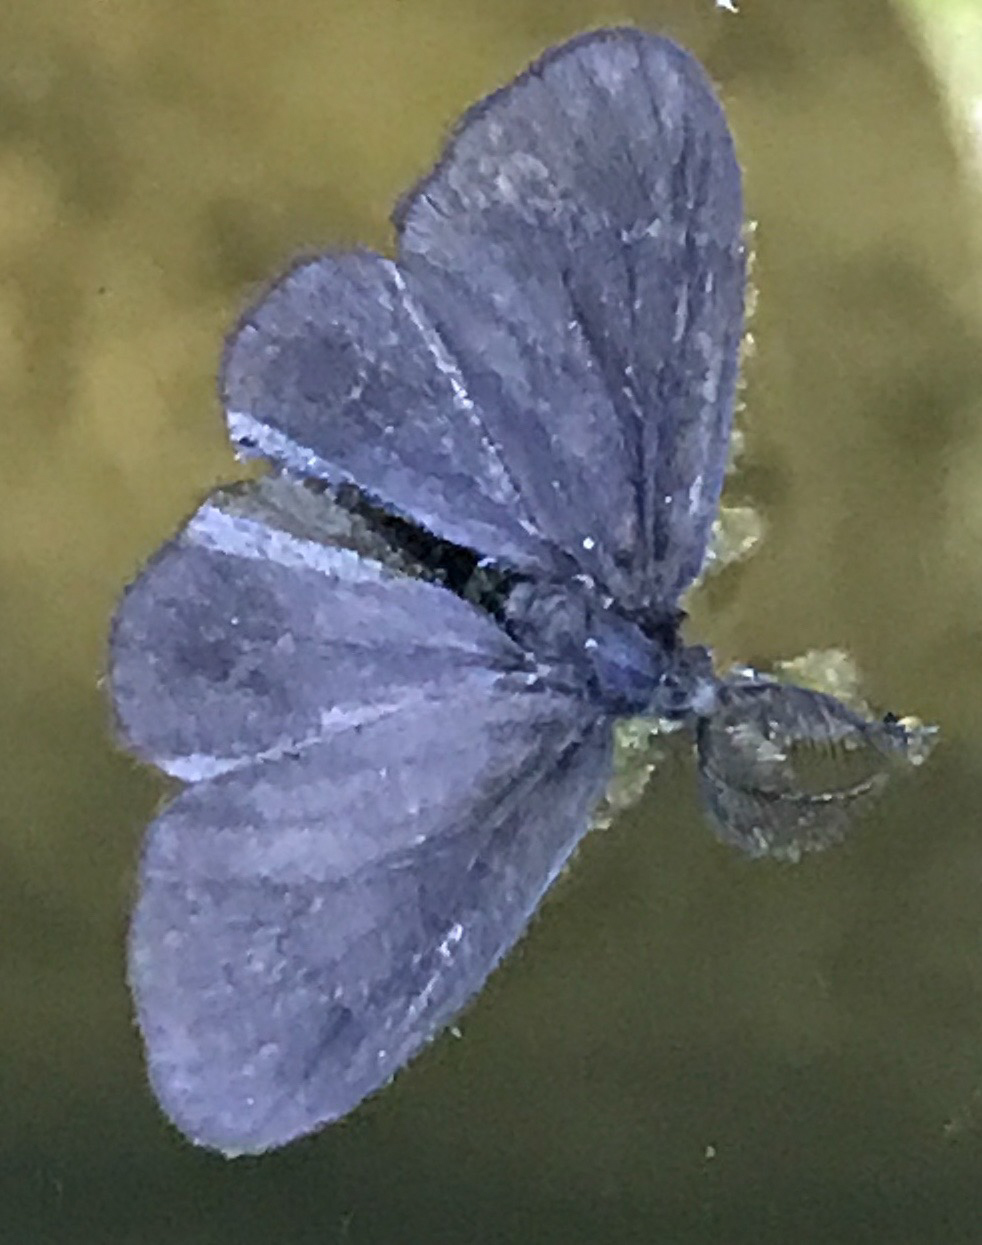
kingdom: Animalia
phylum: Arthropoda
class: Insecta
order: Lepidoptera
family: Psychidae
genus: Cryptothelea
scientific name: Cryptothelea nigrita
